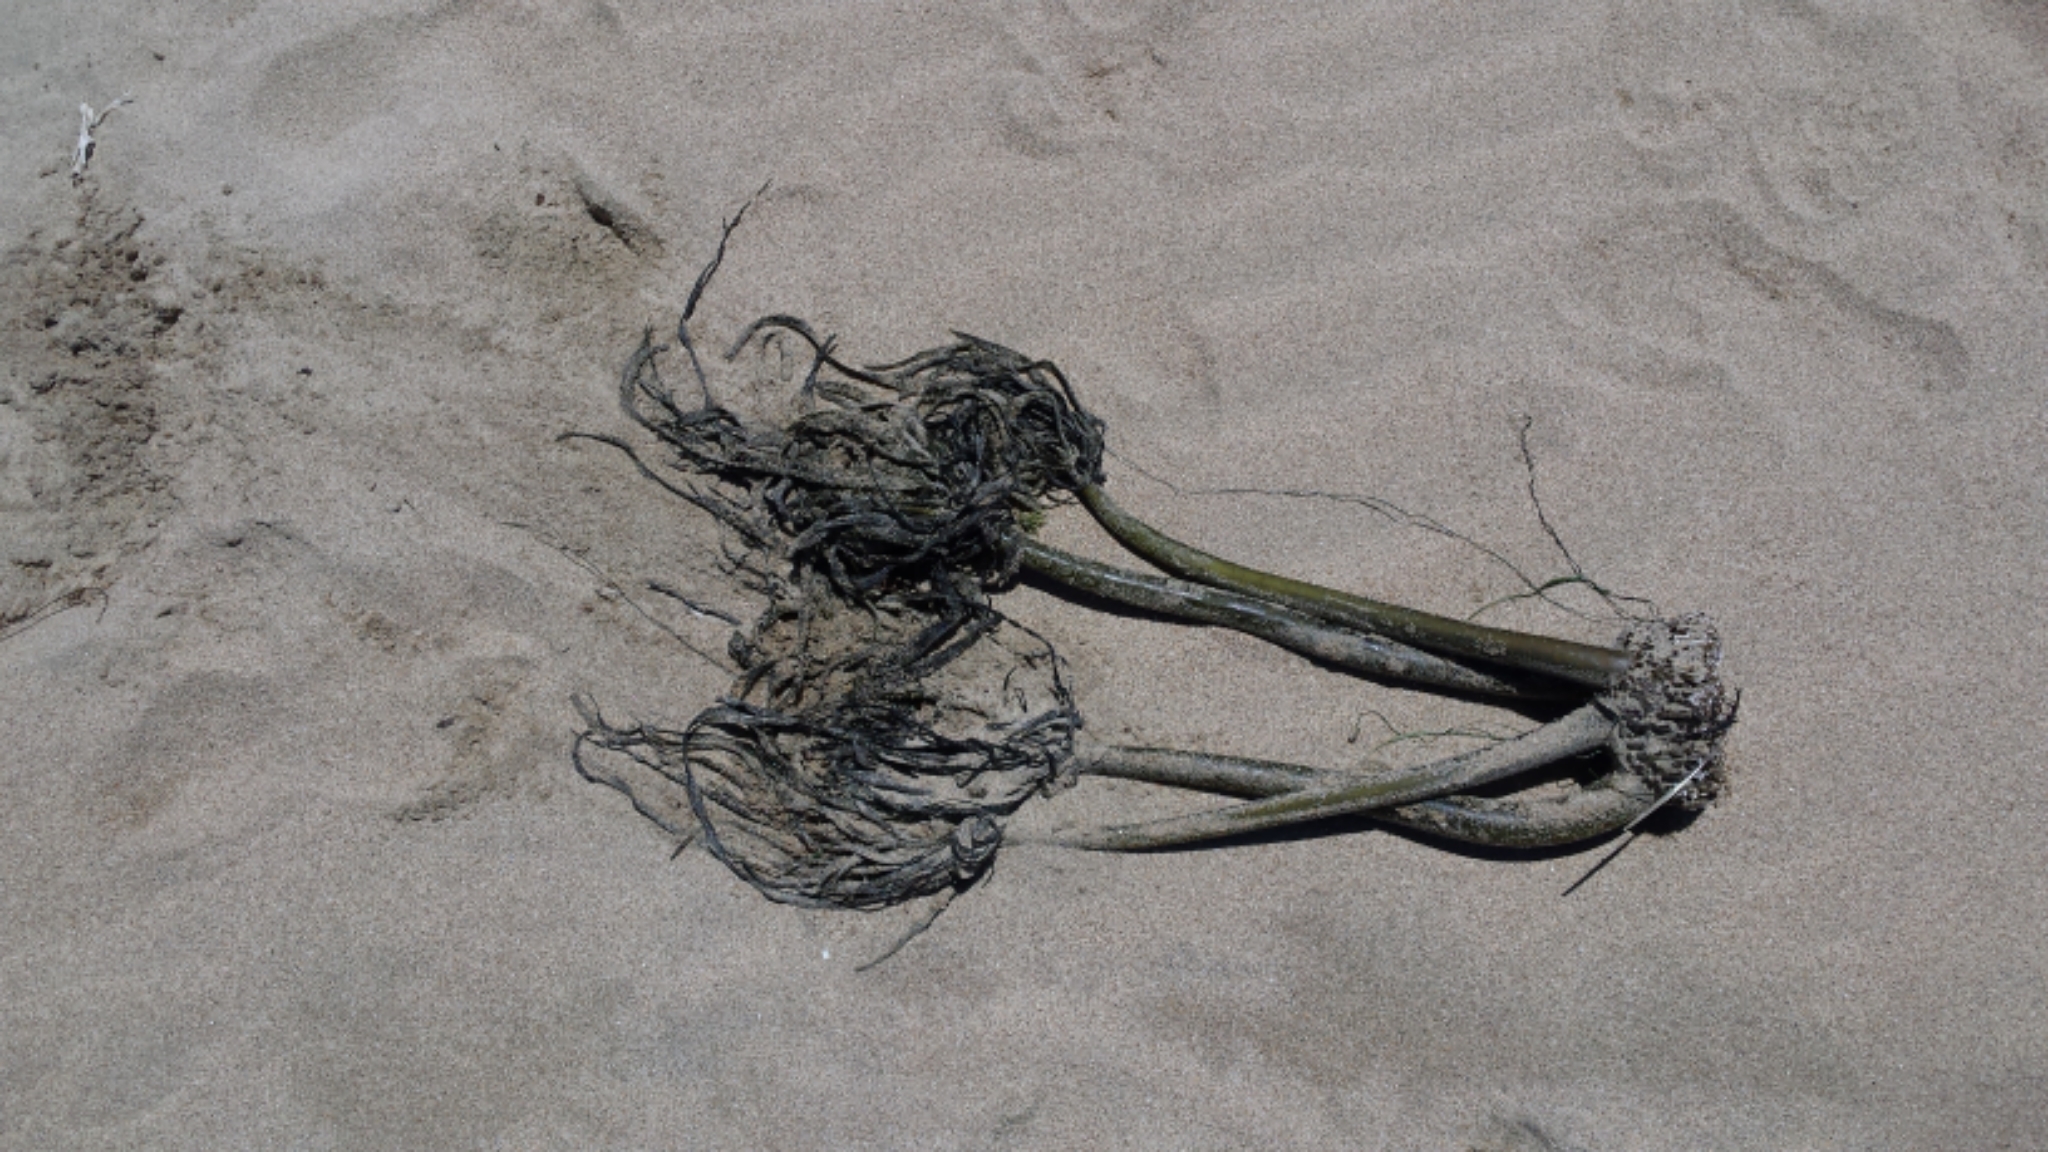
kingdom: Chromista
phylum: Ochrophyta
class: Phaeophyceae
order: Laminariales
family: Laminariaceae
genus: Postelsia
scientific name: Postelsia palmiformis
